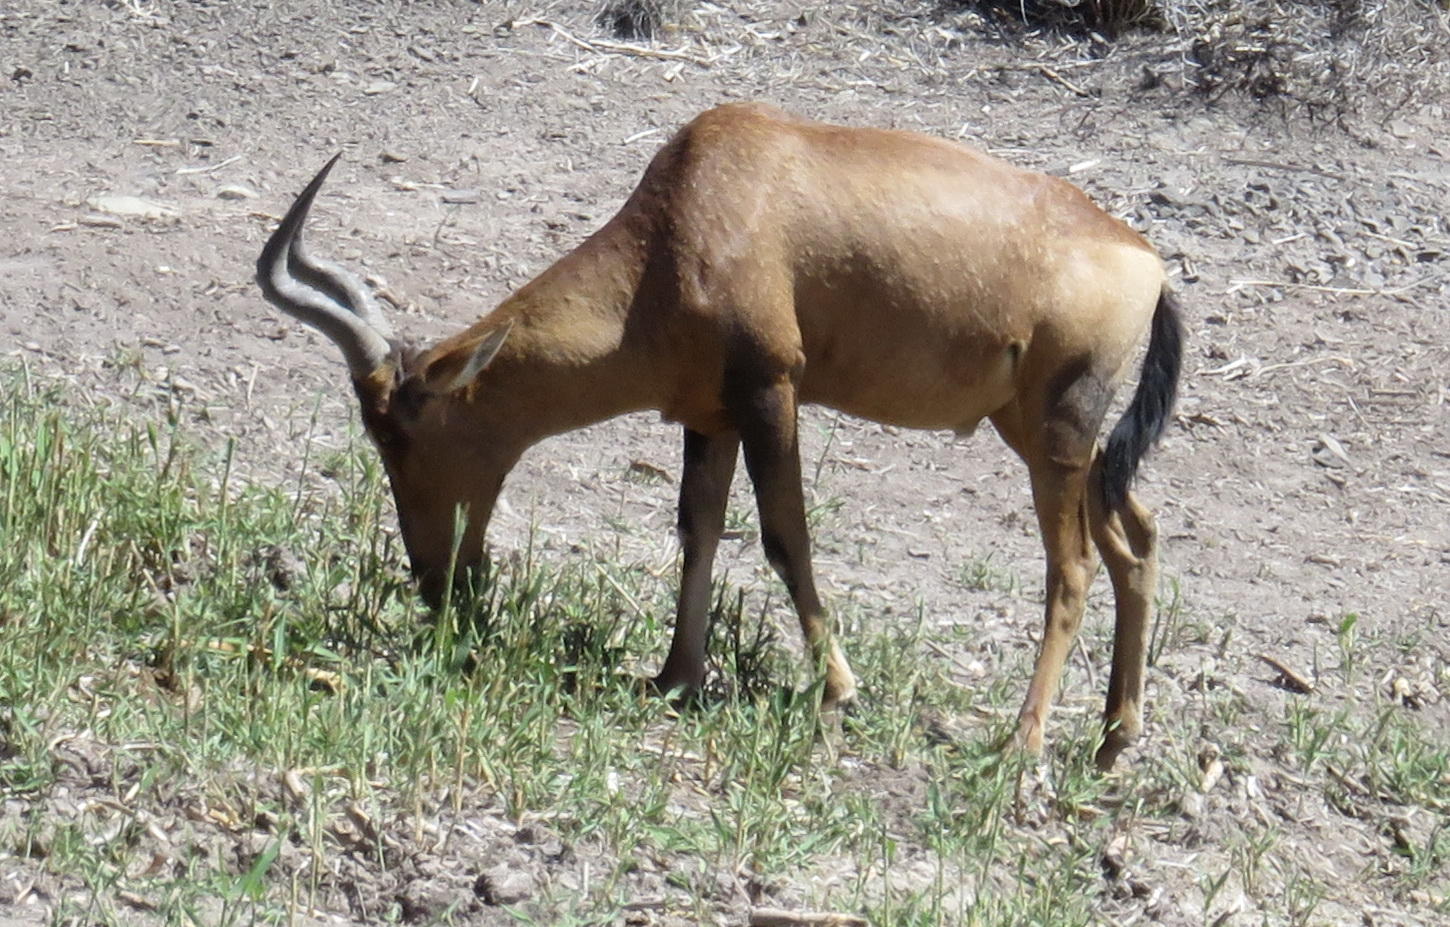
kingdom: Animalia
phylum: Chordata
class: Mammalia
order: Artiodactyla
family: Bovidae
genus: Alcelaphus
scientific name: Alcelaphus caama
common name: Red hartebeest
